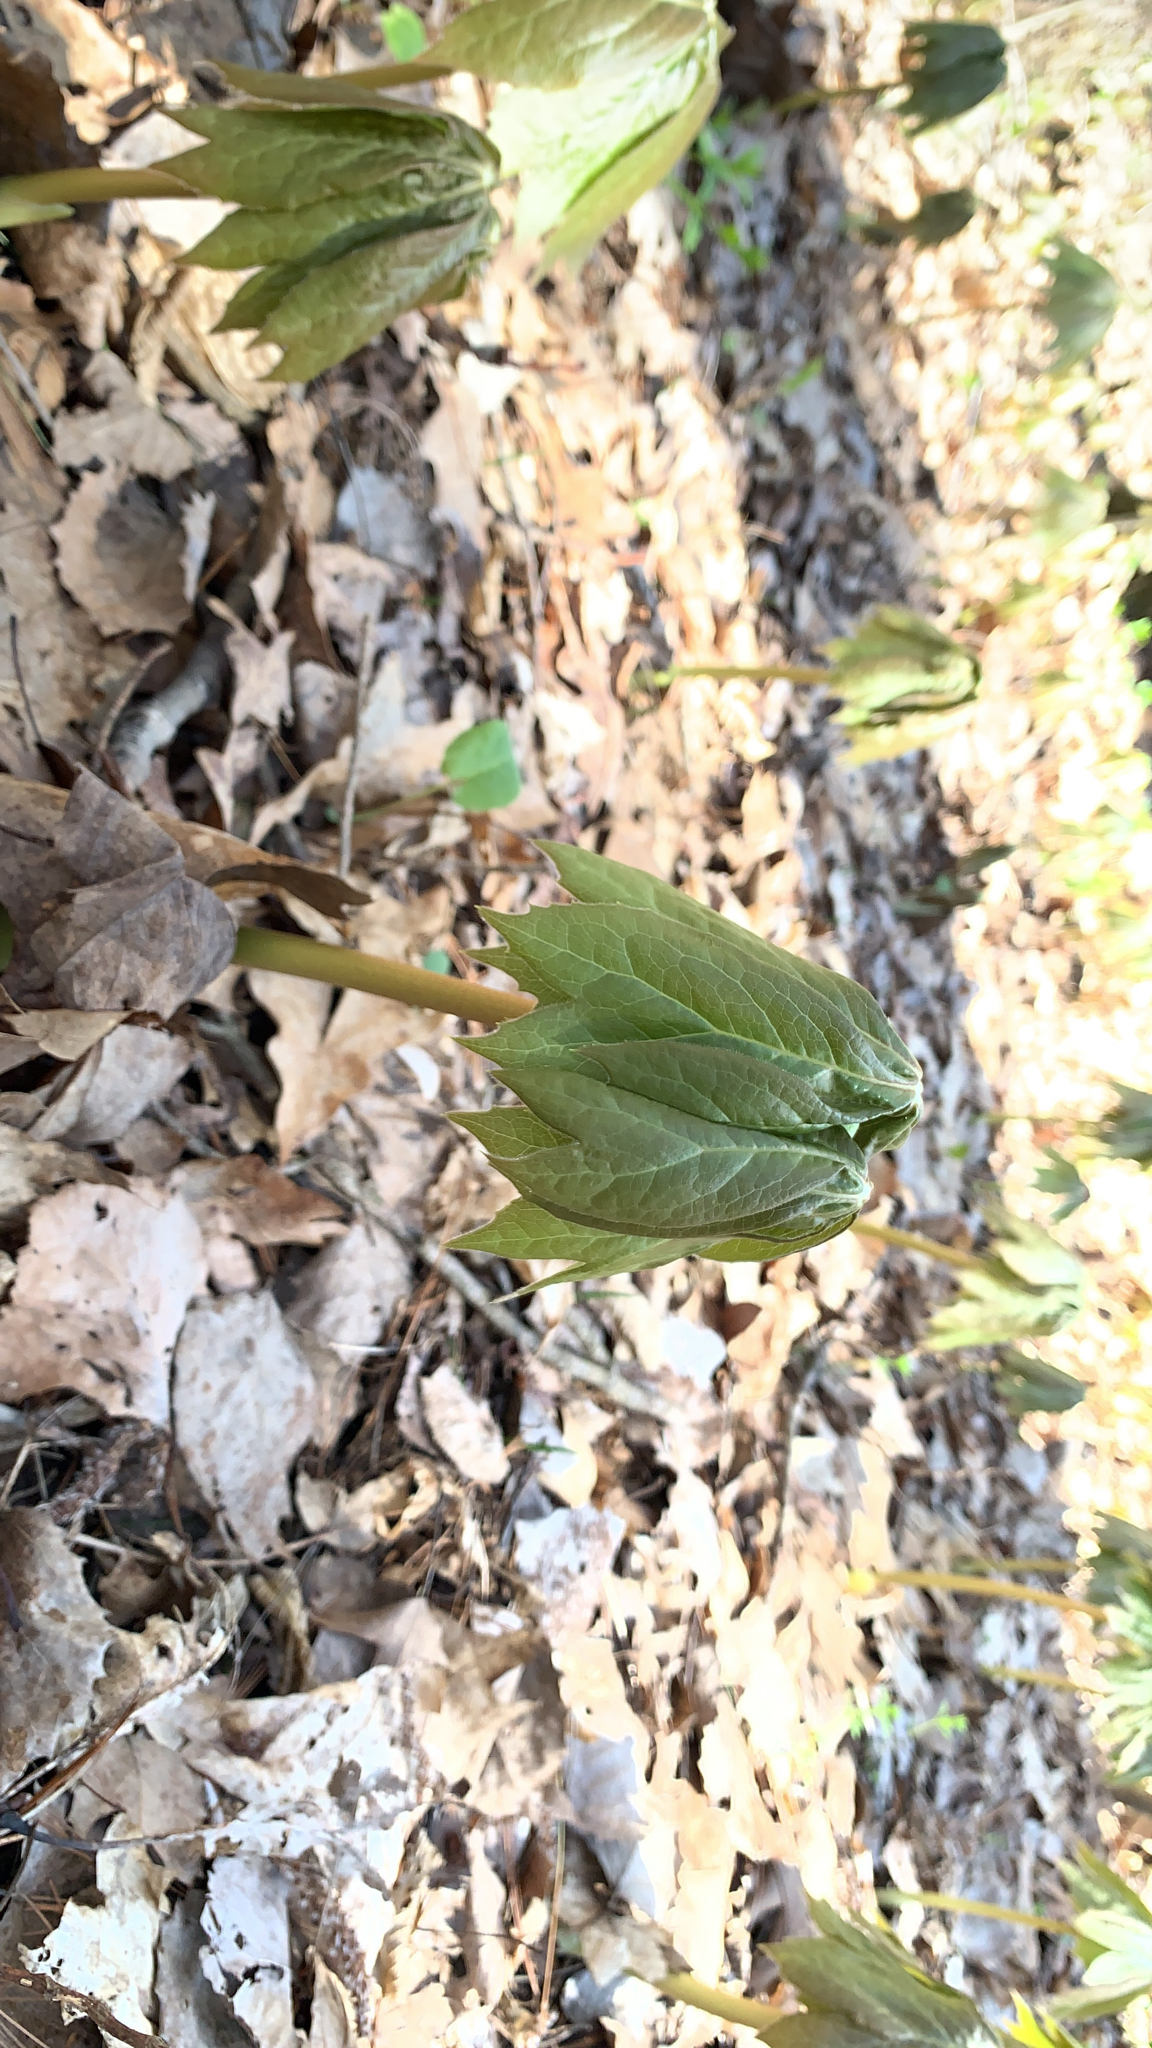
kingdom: Plantae
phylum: Tracheophyta
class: Magnoliopsida
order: Ranunculales
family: Berberidaceae
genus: Podophyllum
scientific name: Podophyllum peltatum
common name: Wild mandrake
